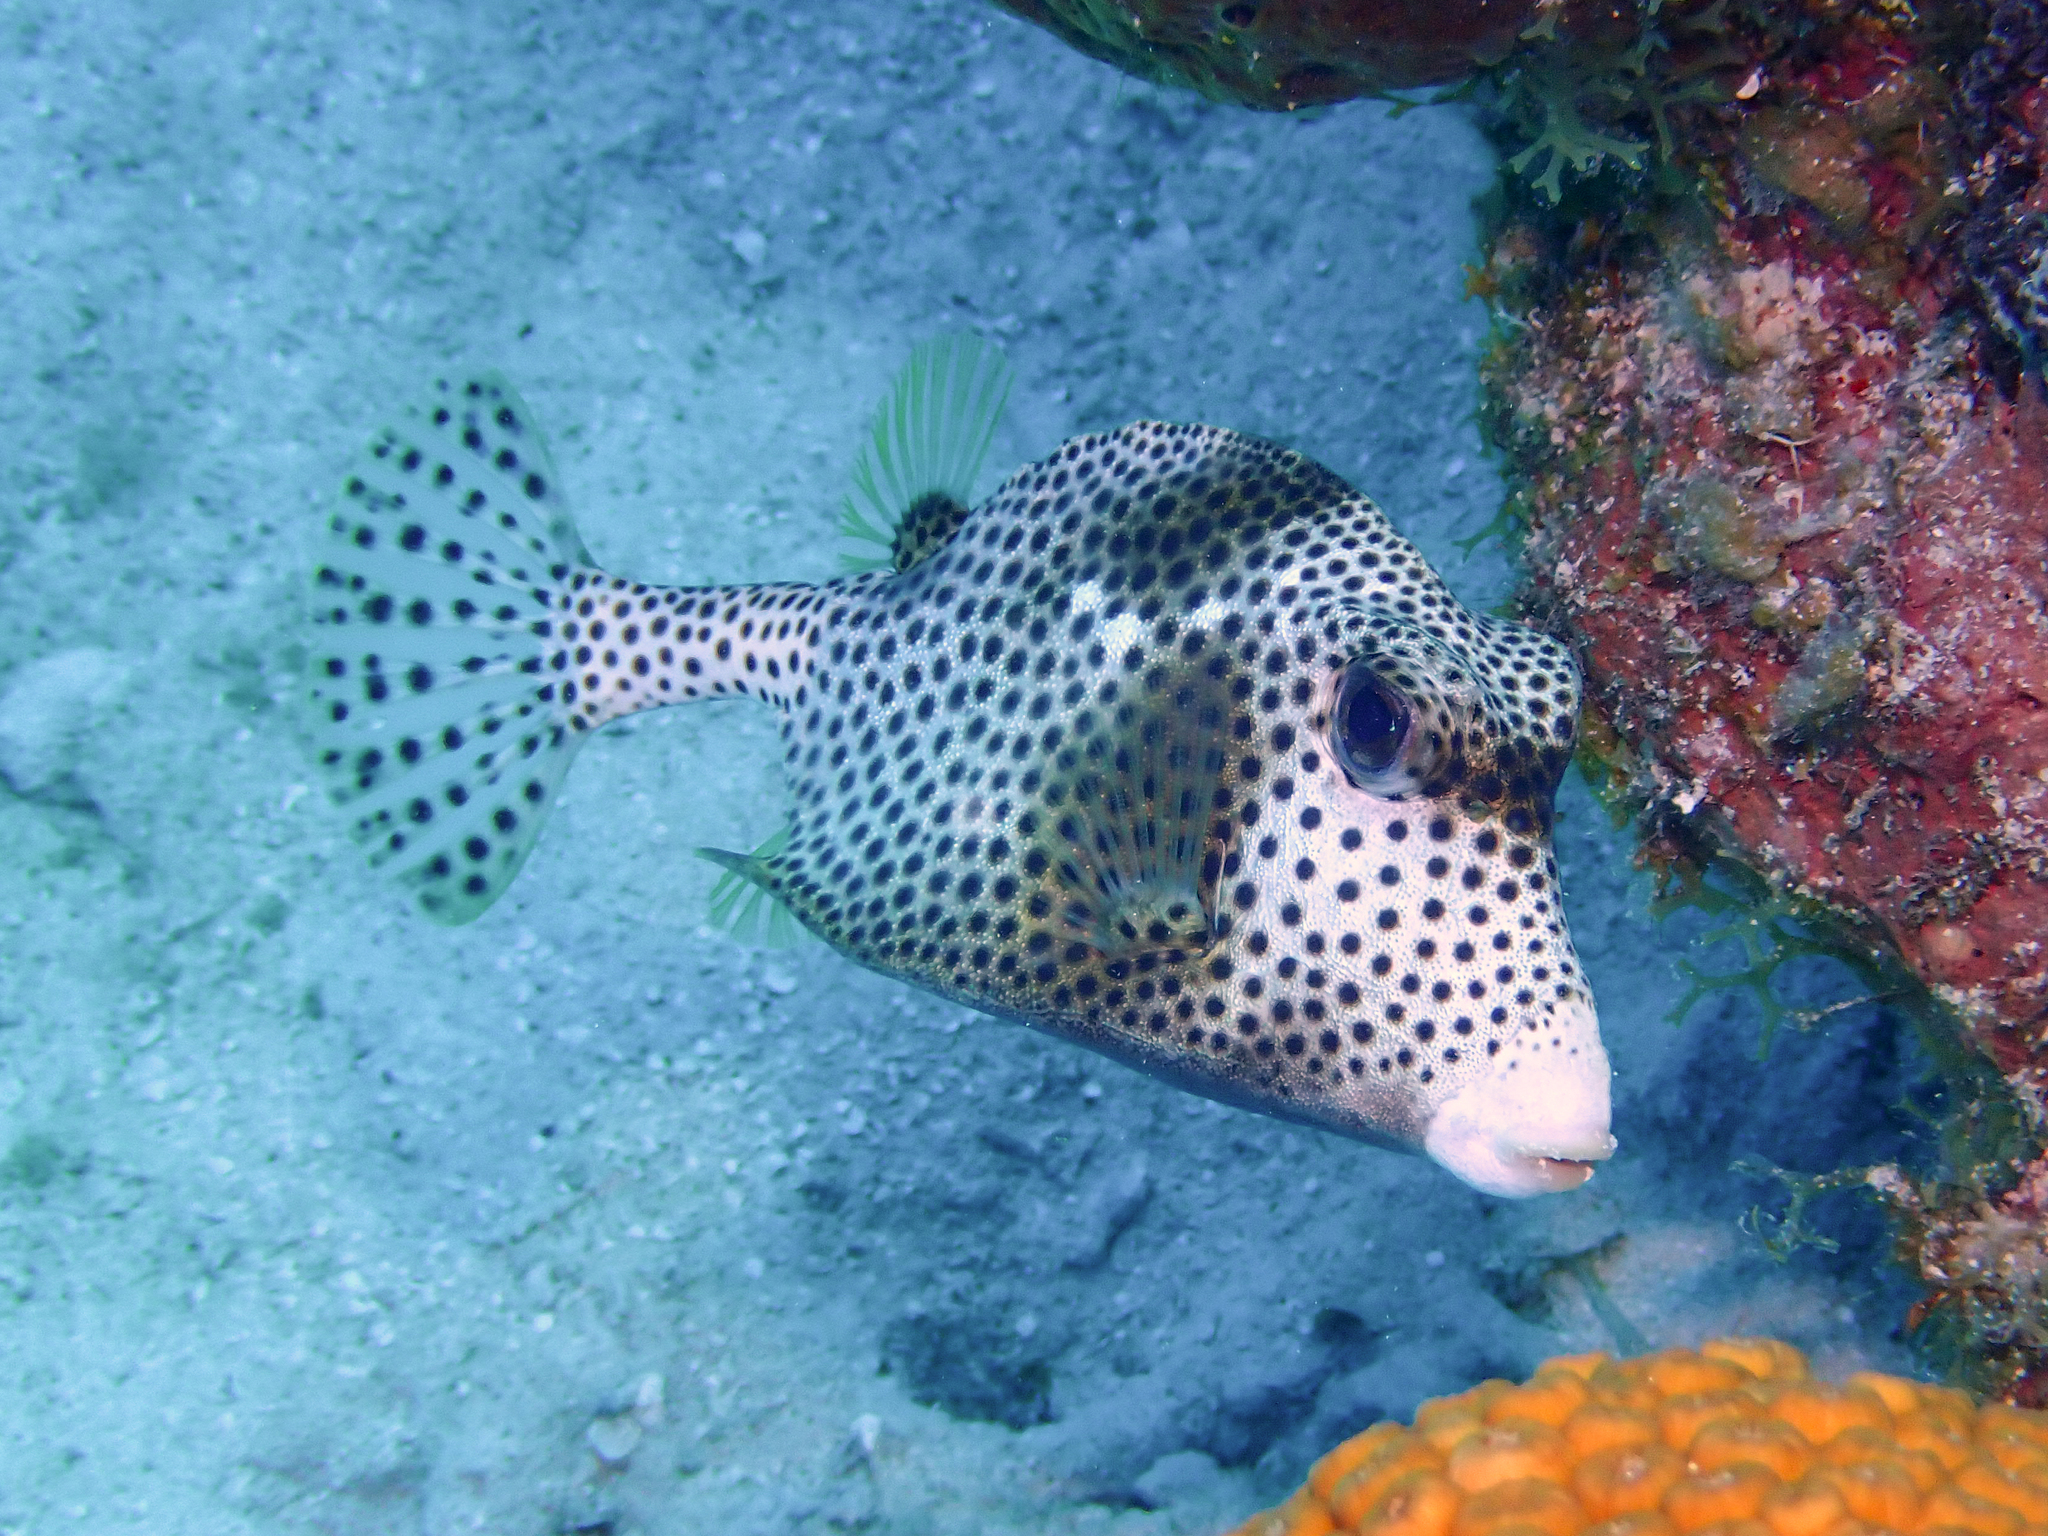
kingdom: Animalia
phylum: Chordata
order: Tetraodontiformes
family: Ostraciidae
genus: Lactophrys
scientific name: Lactophrys bicaudalis
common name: Spotted trunkfish
